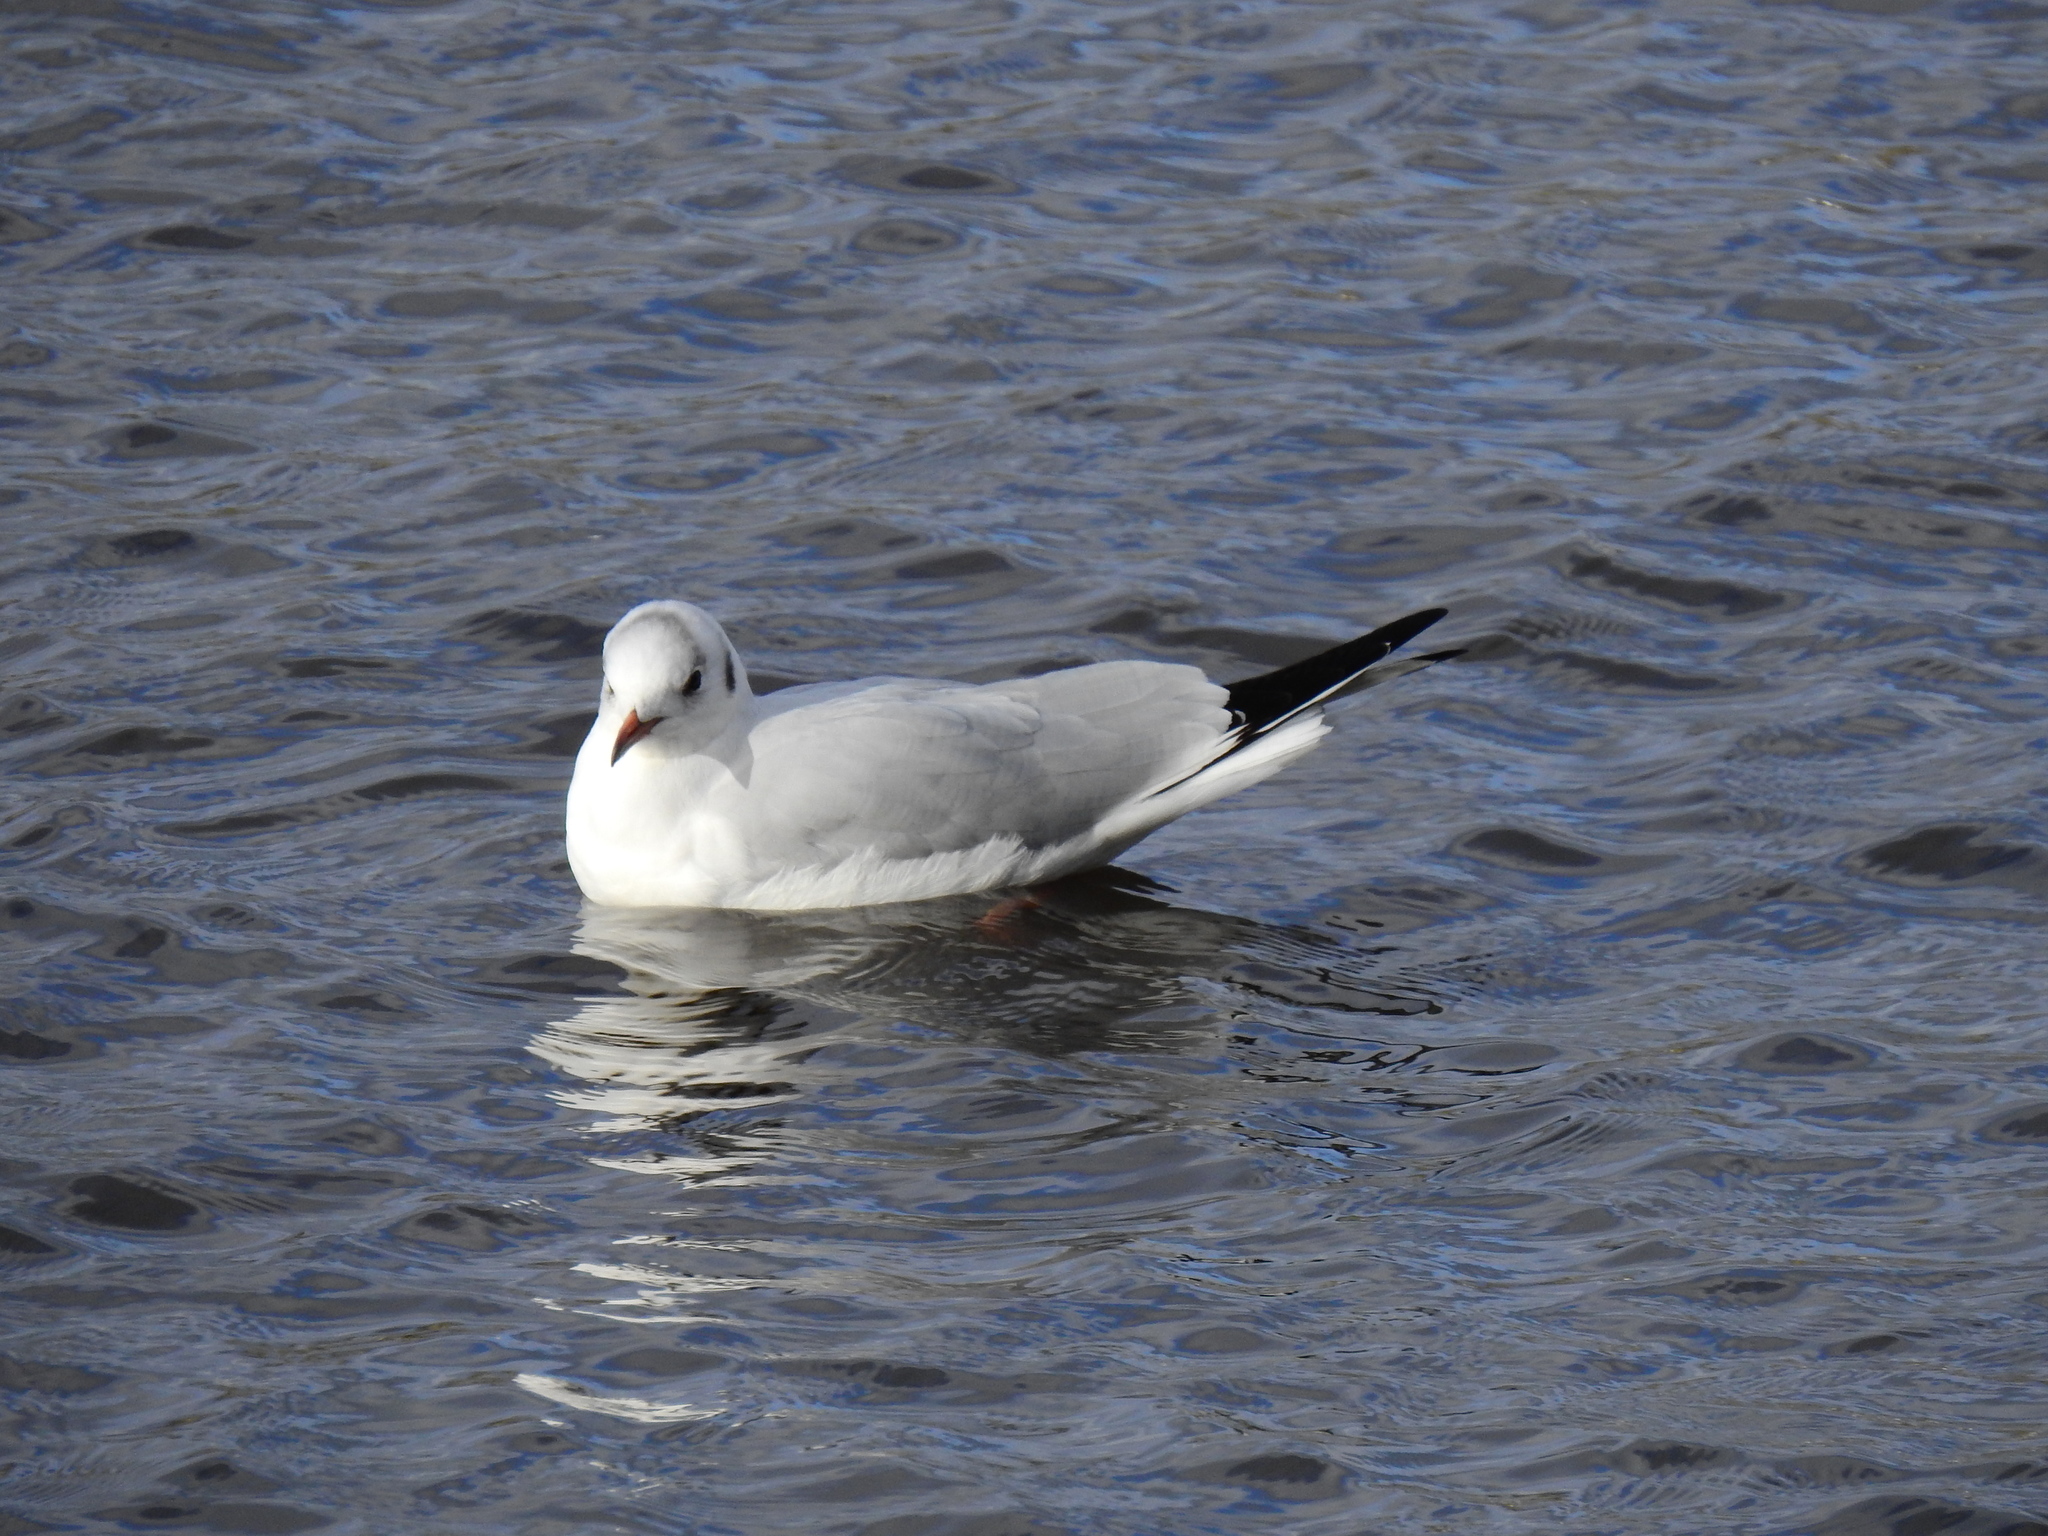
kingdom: Animalia
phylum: Chordata
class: Aves
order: Charadriiformes
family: Laridae
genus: Chroicocephalus
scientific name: Chroicocephalus ridibundus
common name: Black-headed gull
